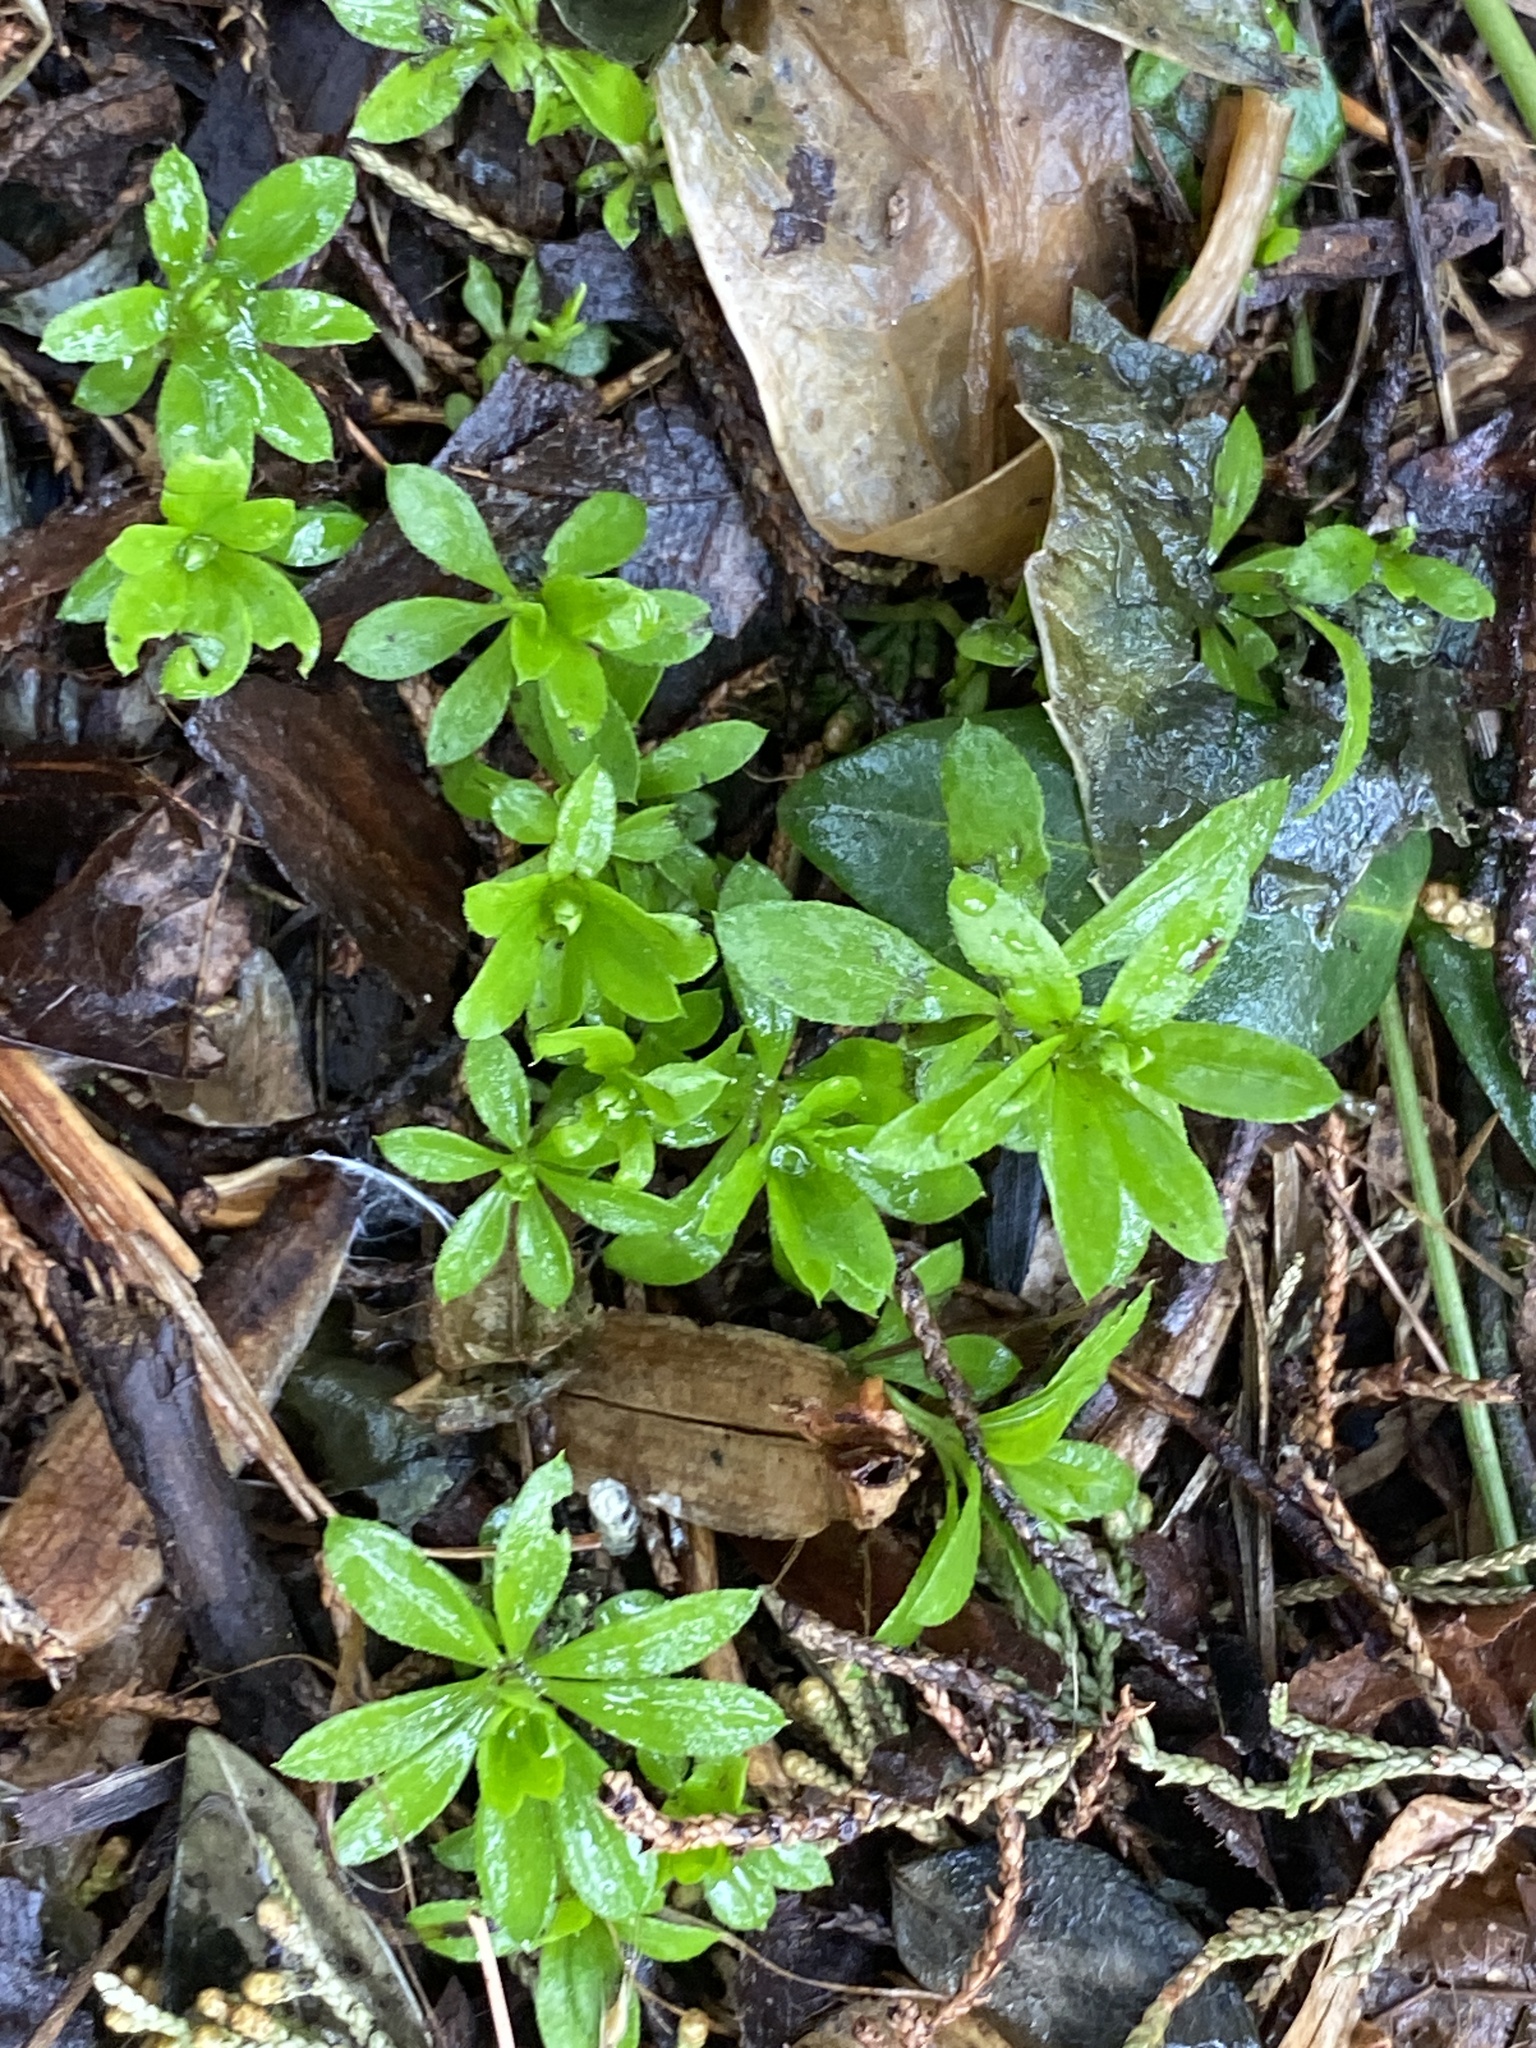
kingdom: Plantae
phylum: Tracheophyta
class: Magnoliopsida
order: Gentianales
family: Rubiaceae
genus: Galium
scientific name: Galium odoratum
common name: Sweet woodruff
